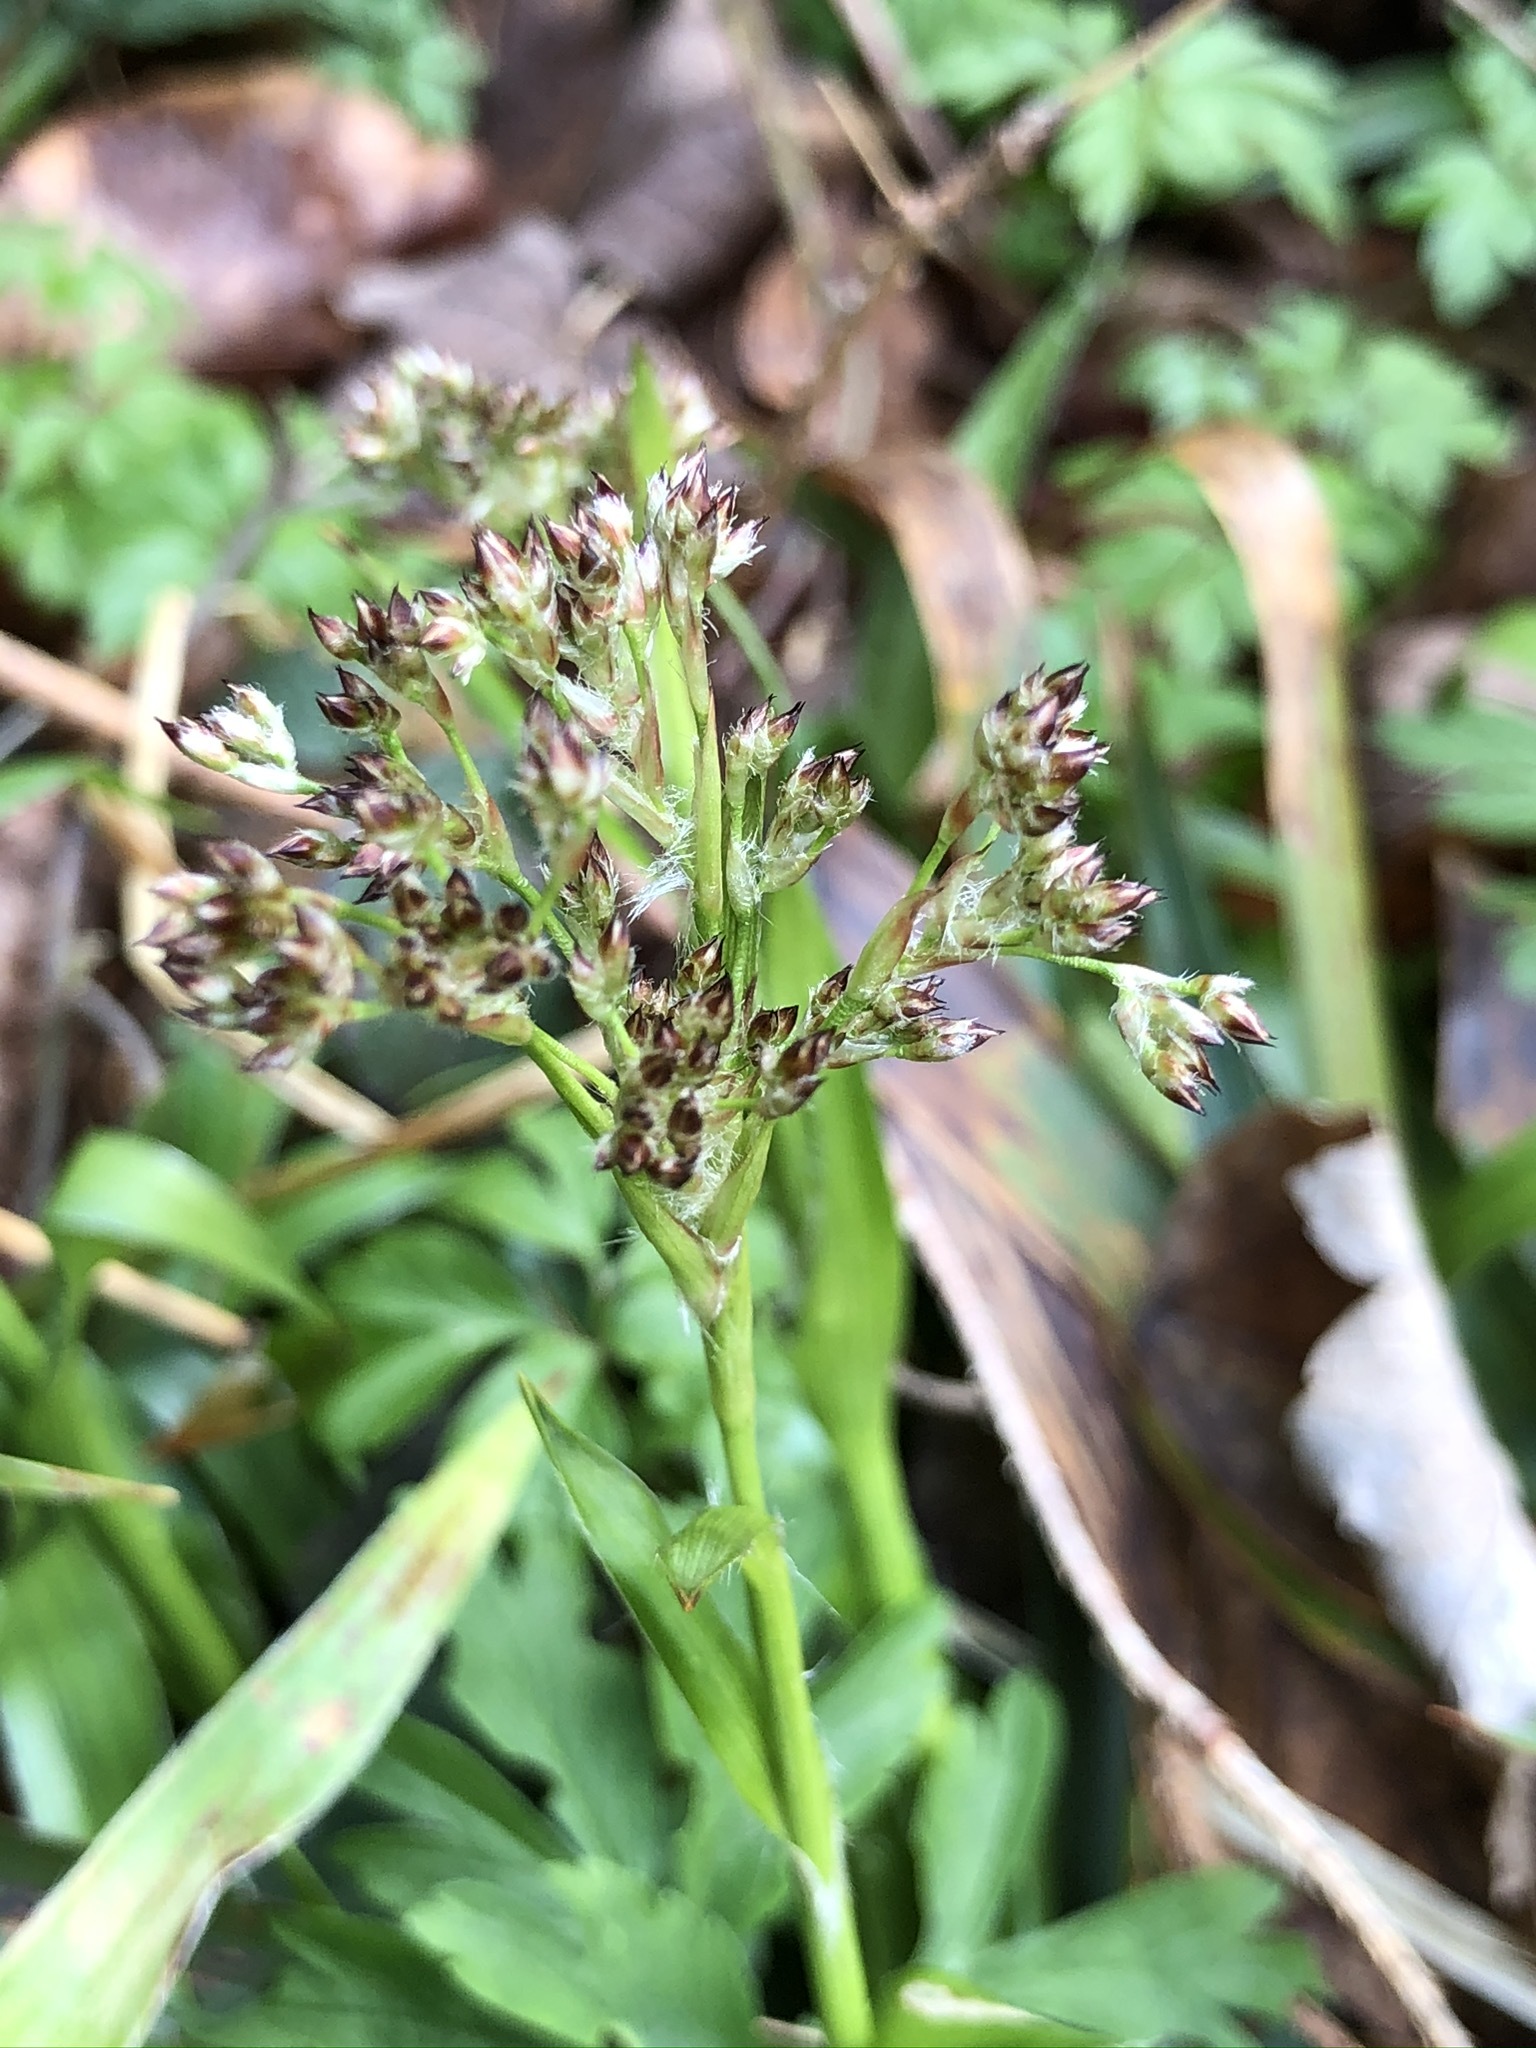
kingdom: Plantae
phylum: Tracheophyta
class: Liliopsida
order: Poales
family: Juncaceae
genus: Luzula
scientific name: Luzula sylvatica
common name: Great wood-rush
